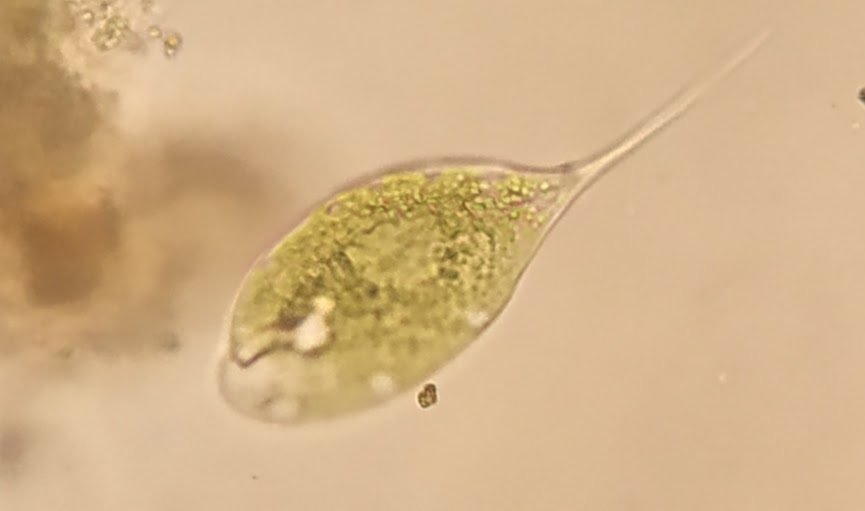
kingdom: Protozoa
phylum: Euglenozoa
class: Euglenoidea
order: Euglenida
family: Phacidae
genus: Phacus
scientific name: Phacus elegans
